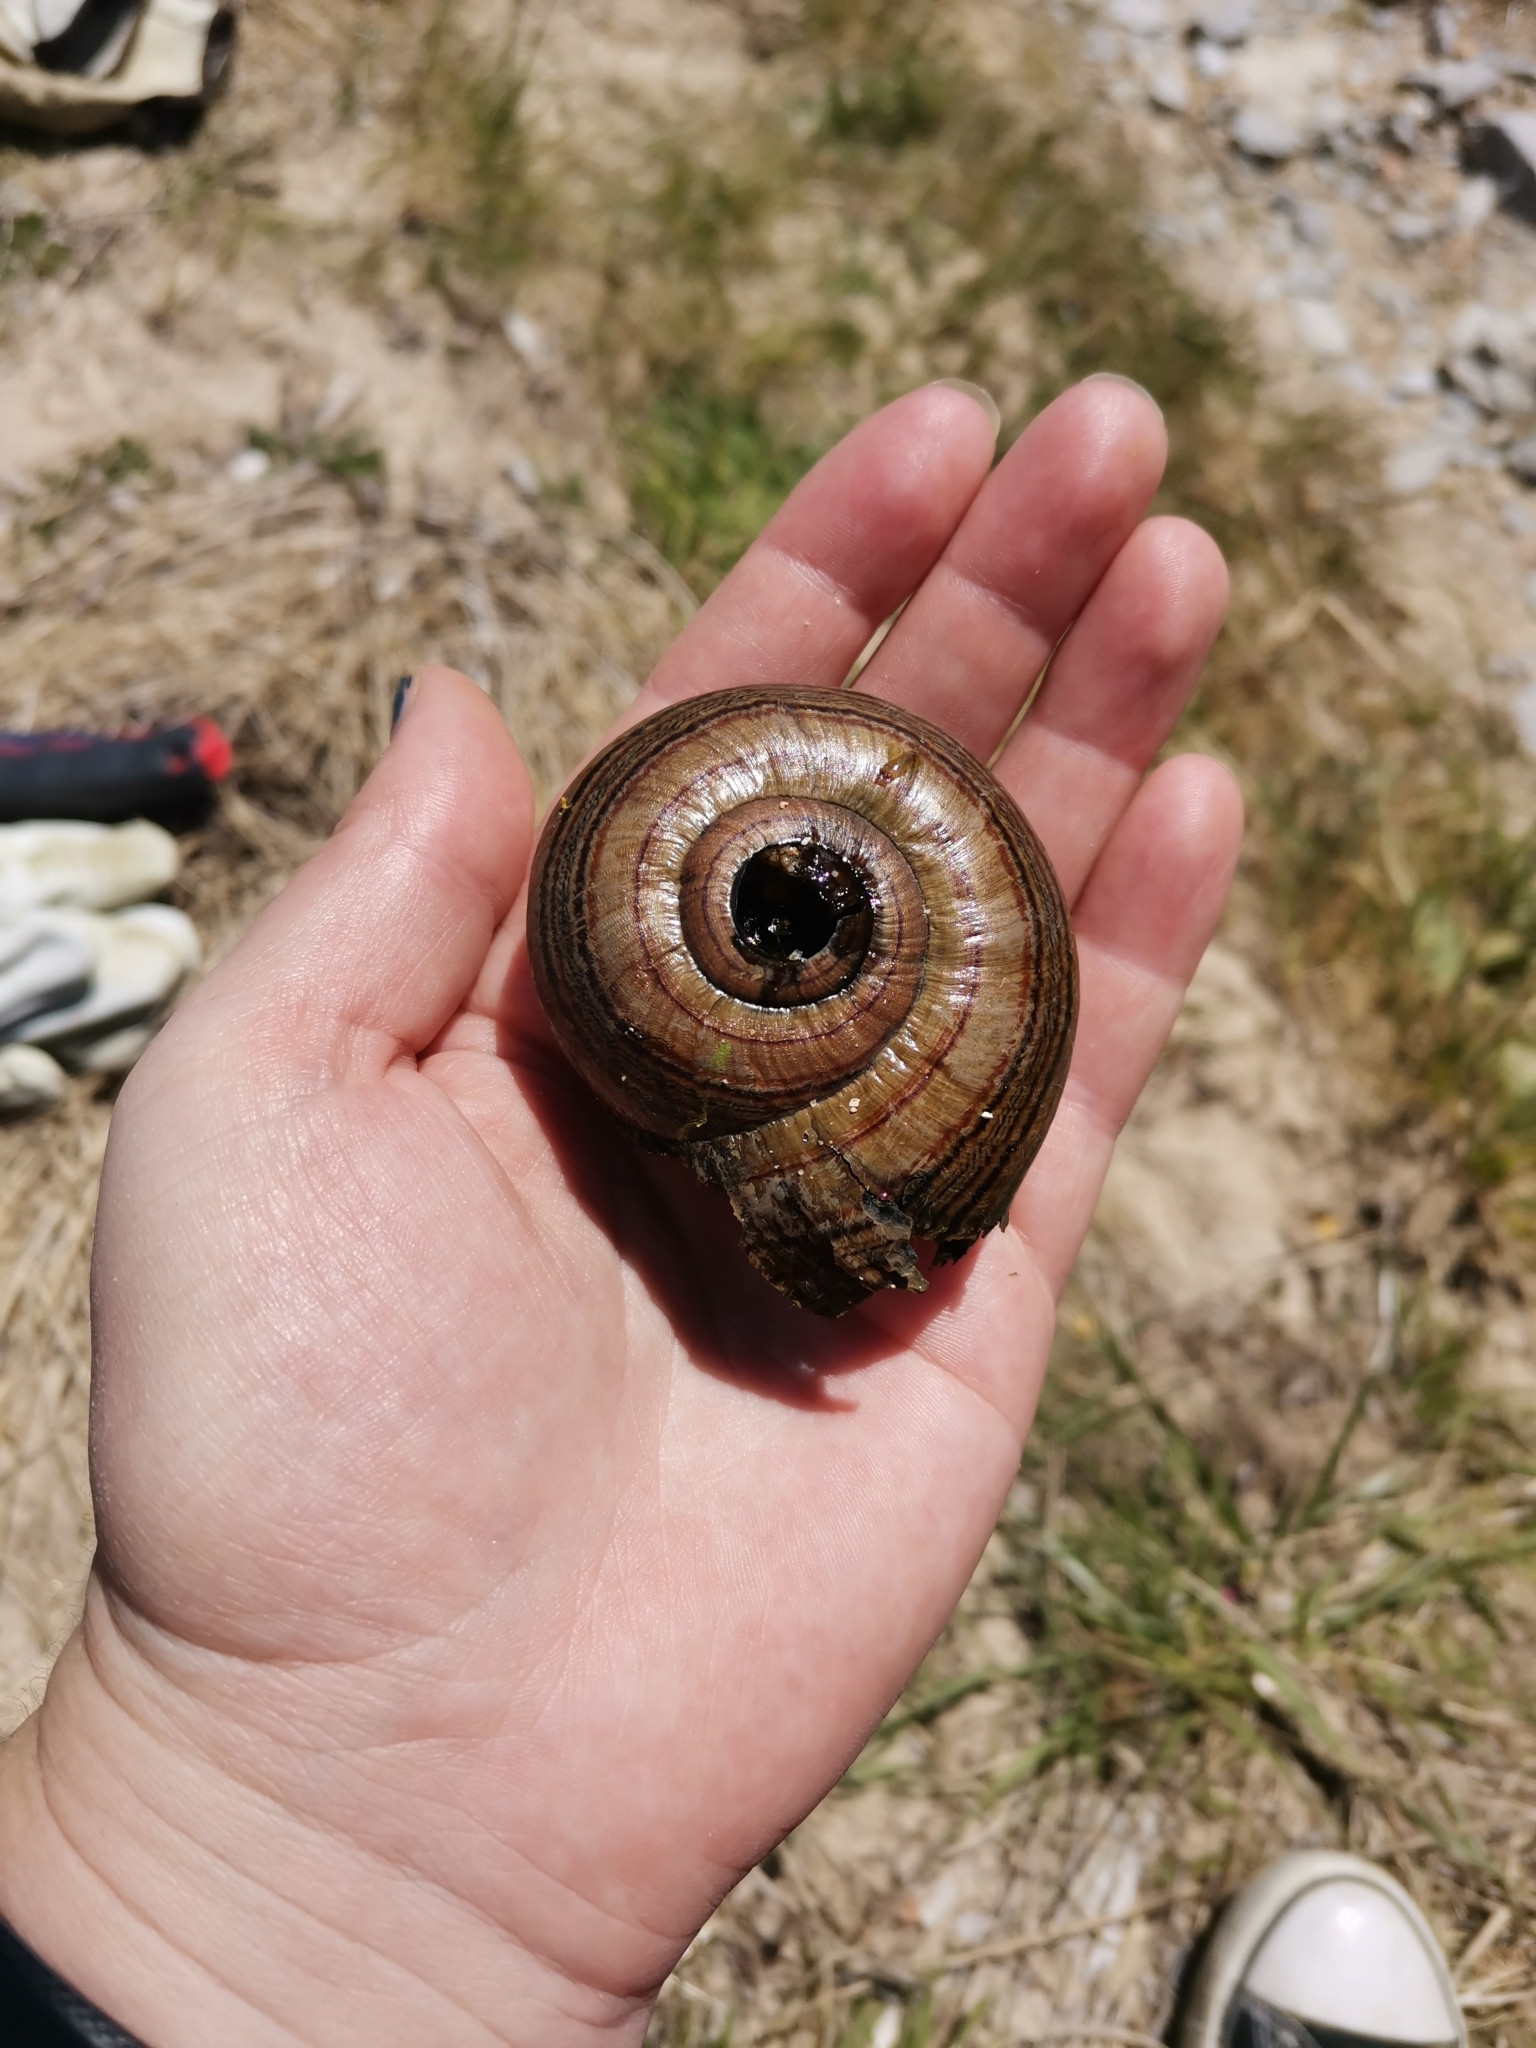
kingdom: Animalia
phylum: Mollusca
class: Gastropoda
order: Stylommatophora
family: Rhytididae
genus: Powelliphanta
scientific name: Powelliphanta hochstetteri
